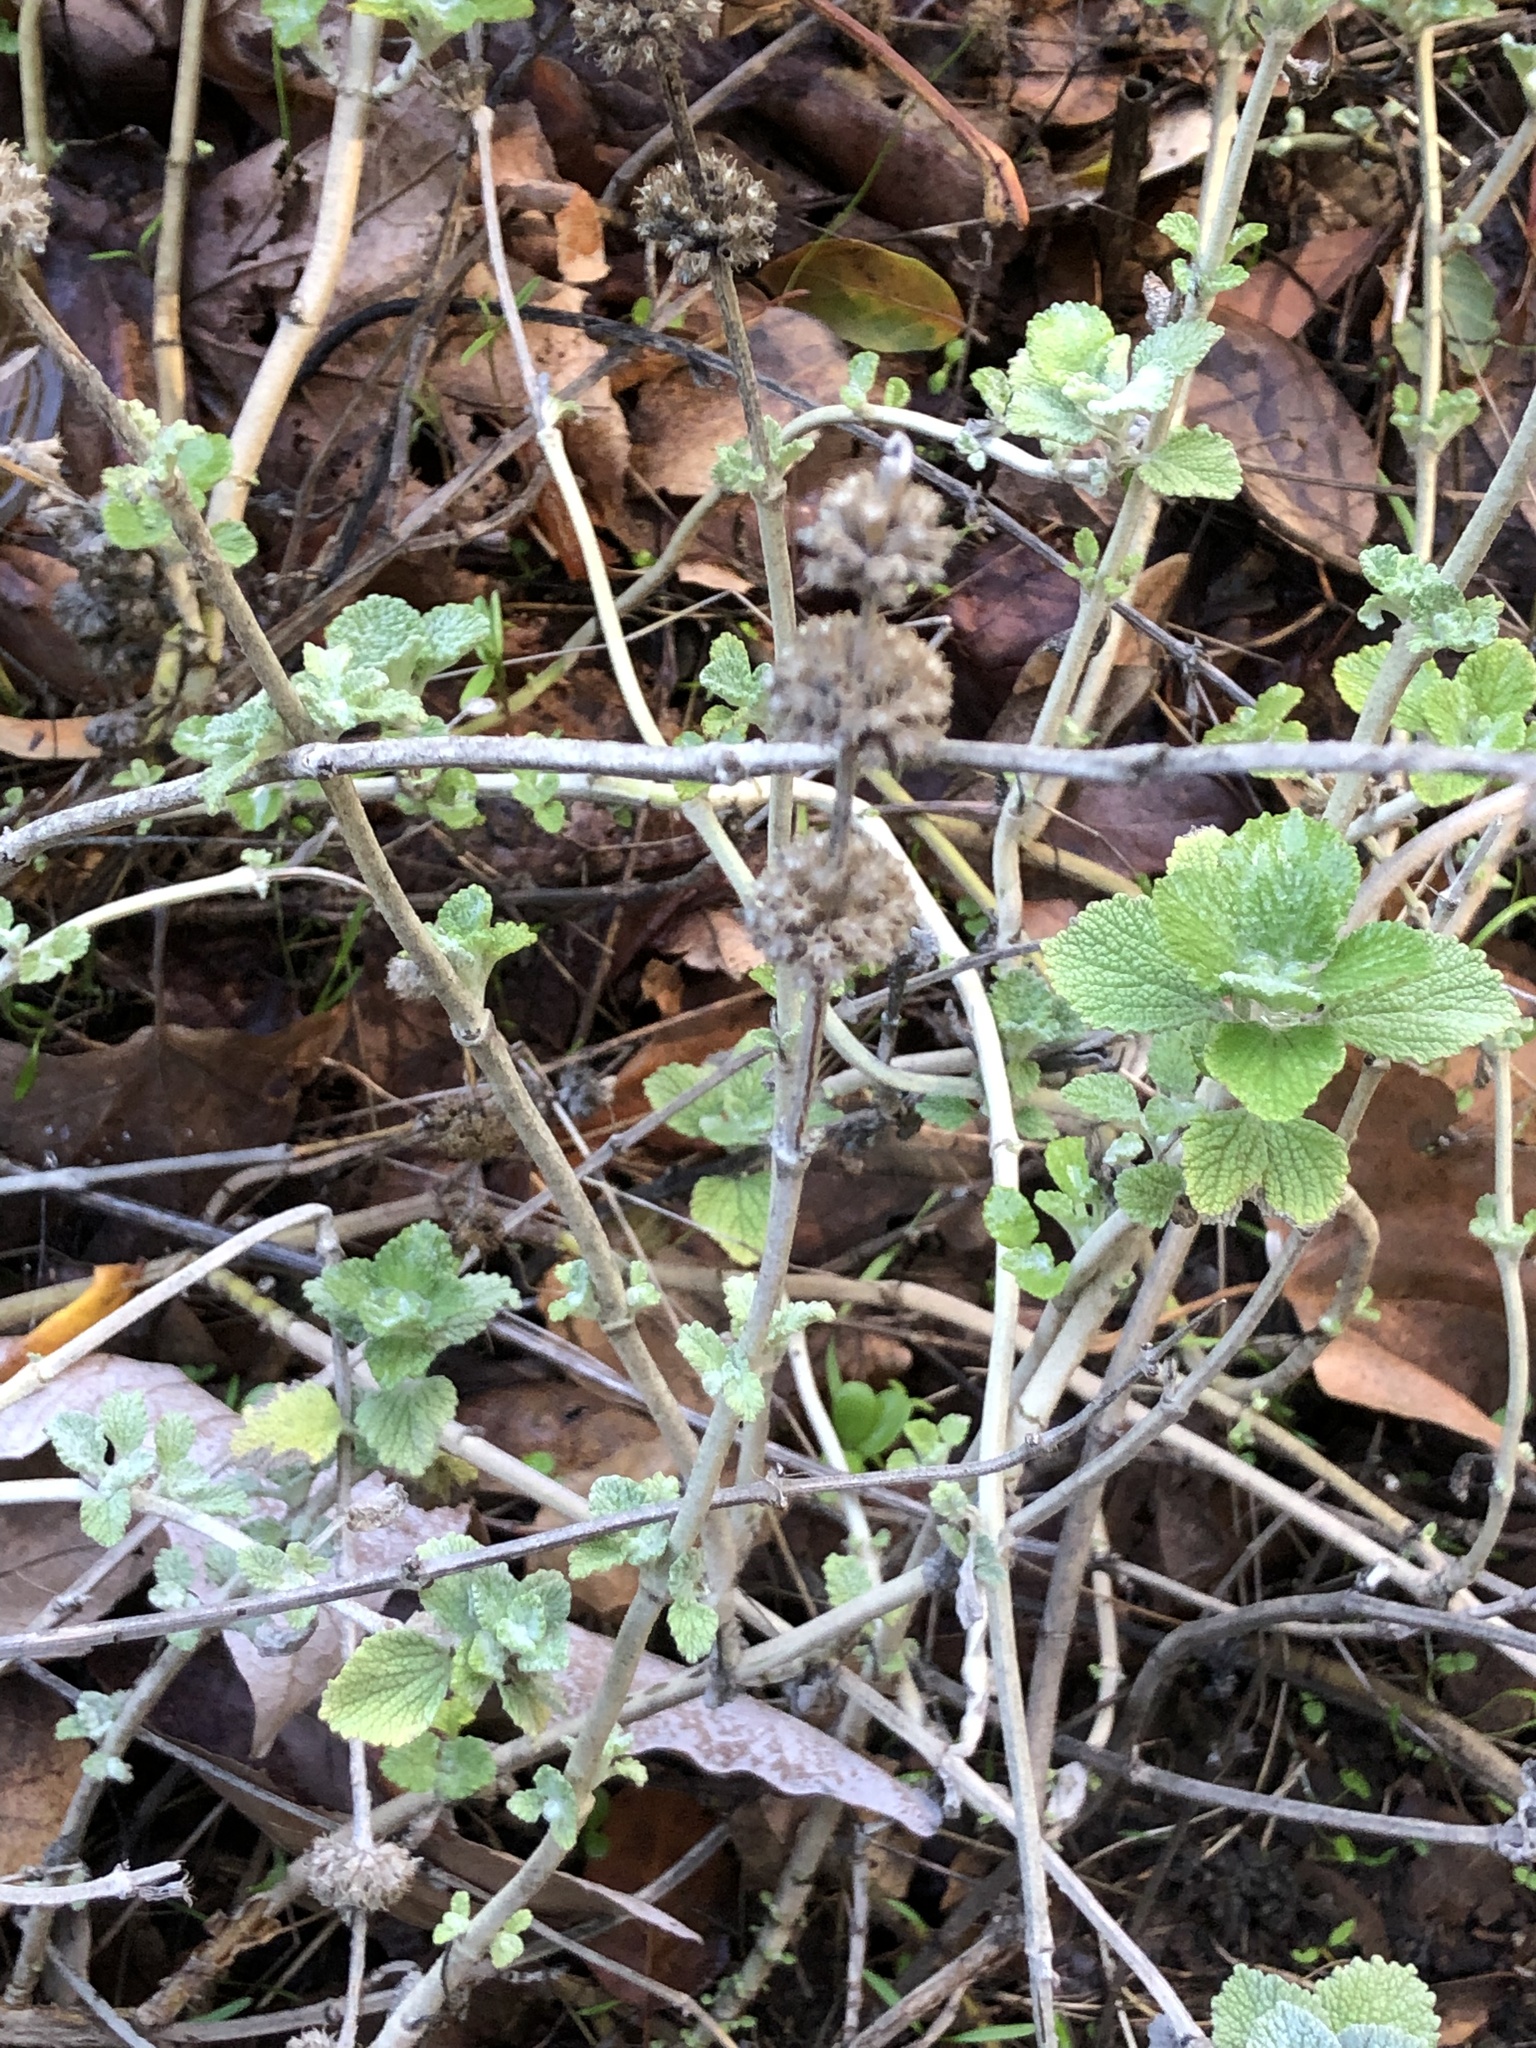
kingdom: Plantae
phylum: Tracheophyta
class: Magnoliopsida
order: Lamiales
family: Lamiaceae
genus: Marrubium
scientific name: Marrubium vulgare
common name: Horehound
